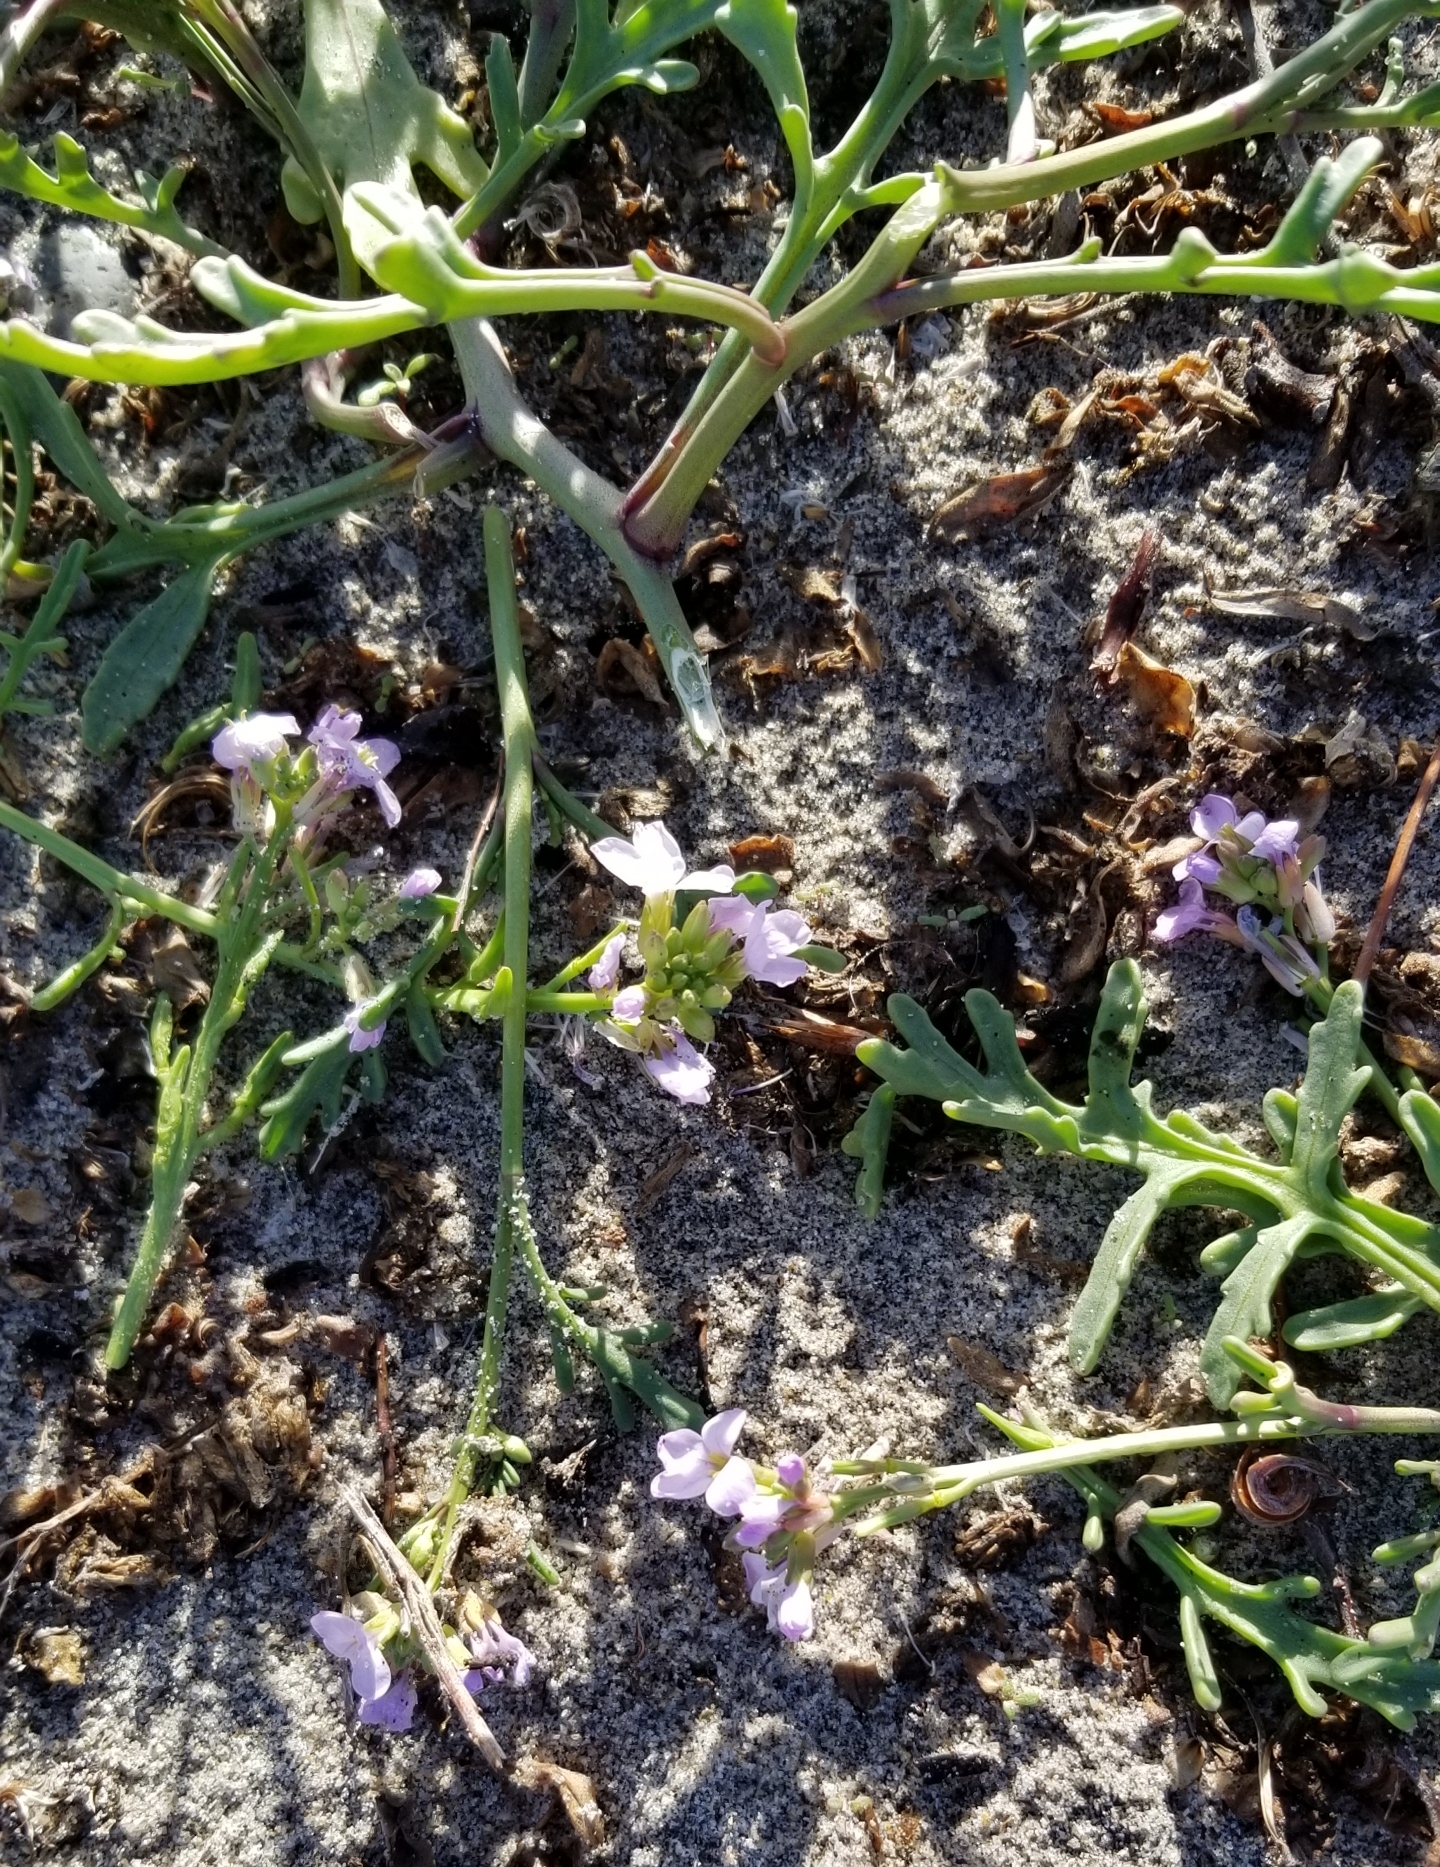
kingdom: Plantae
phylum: Tracheophyta
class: Magnoliopsida
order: Brassicales
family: Brassicaceae
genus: Cakile
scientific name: Cakile maritima
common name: Sea rocket
